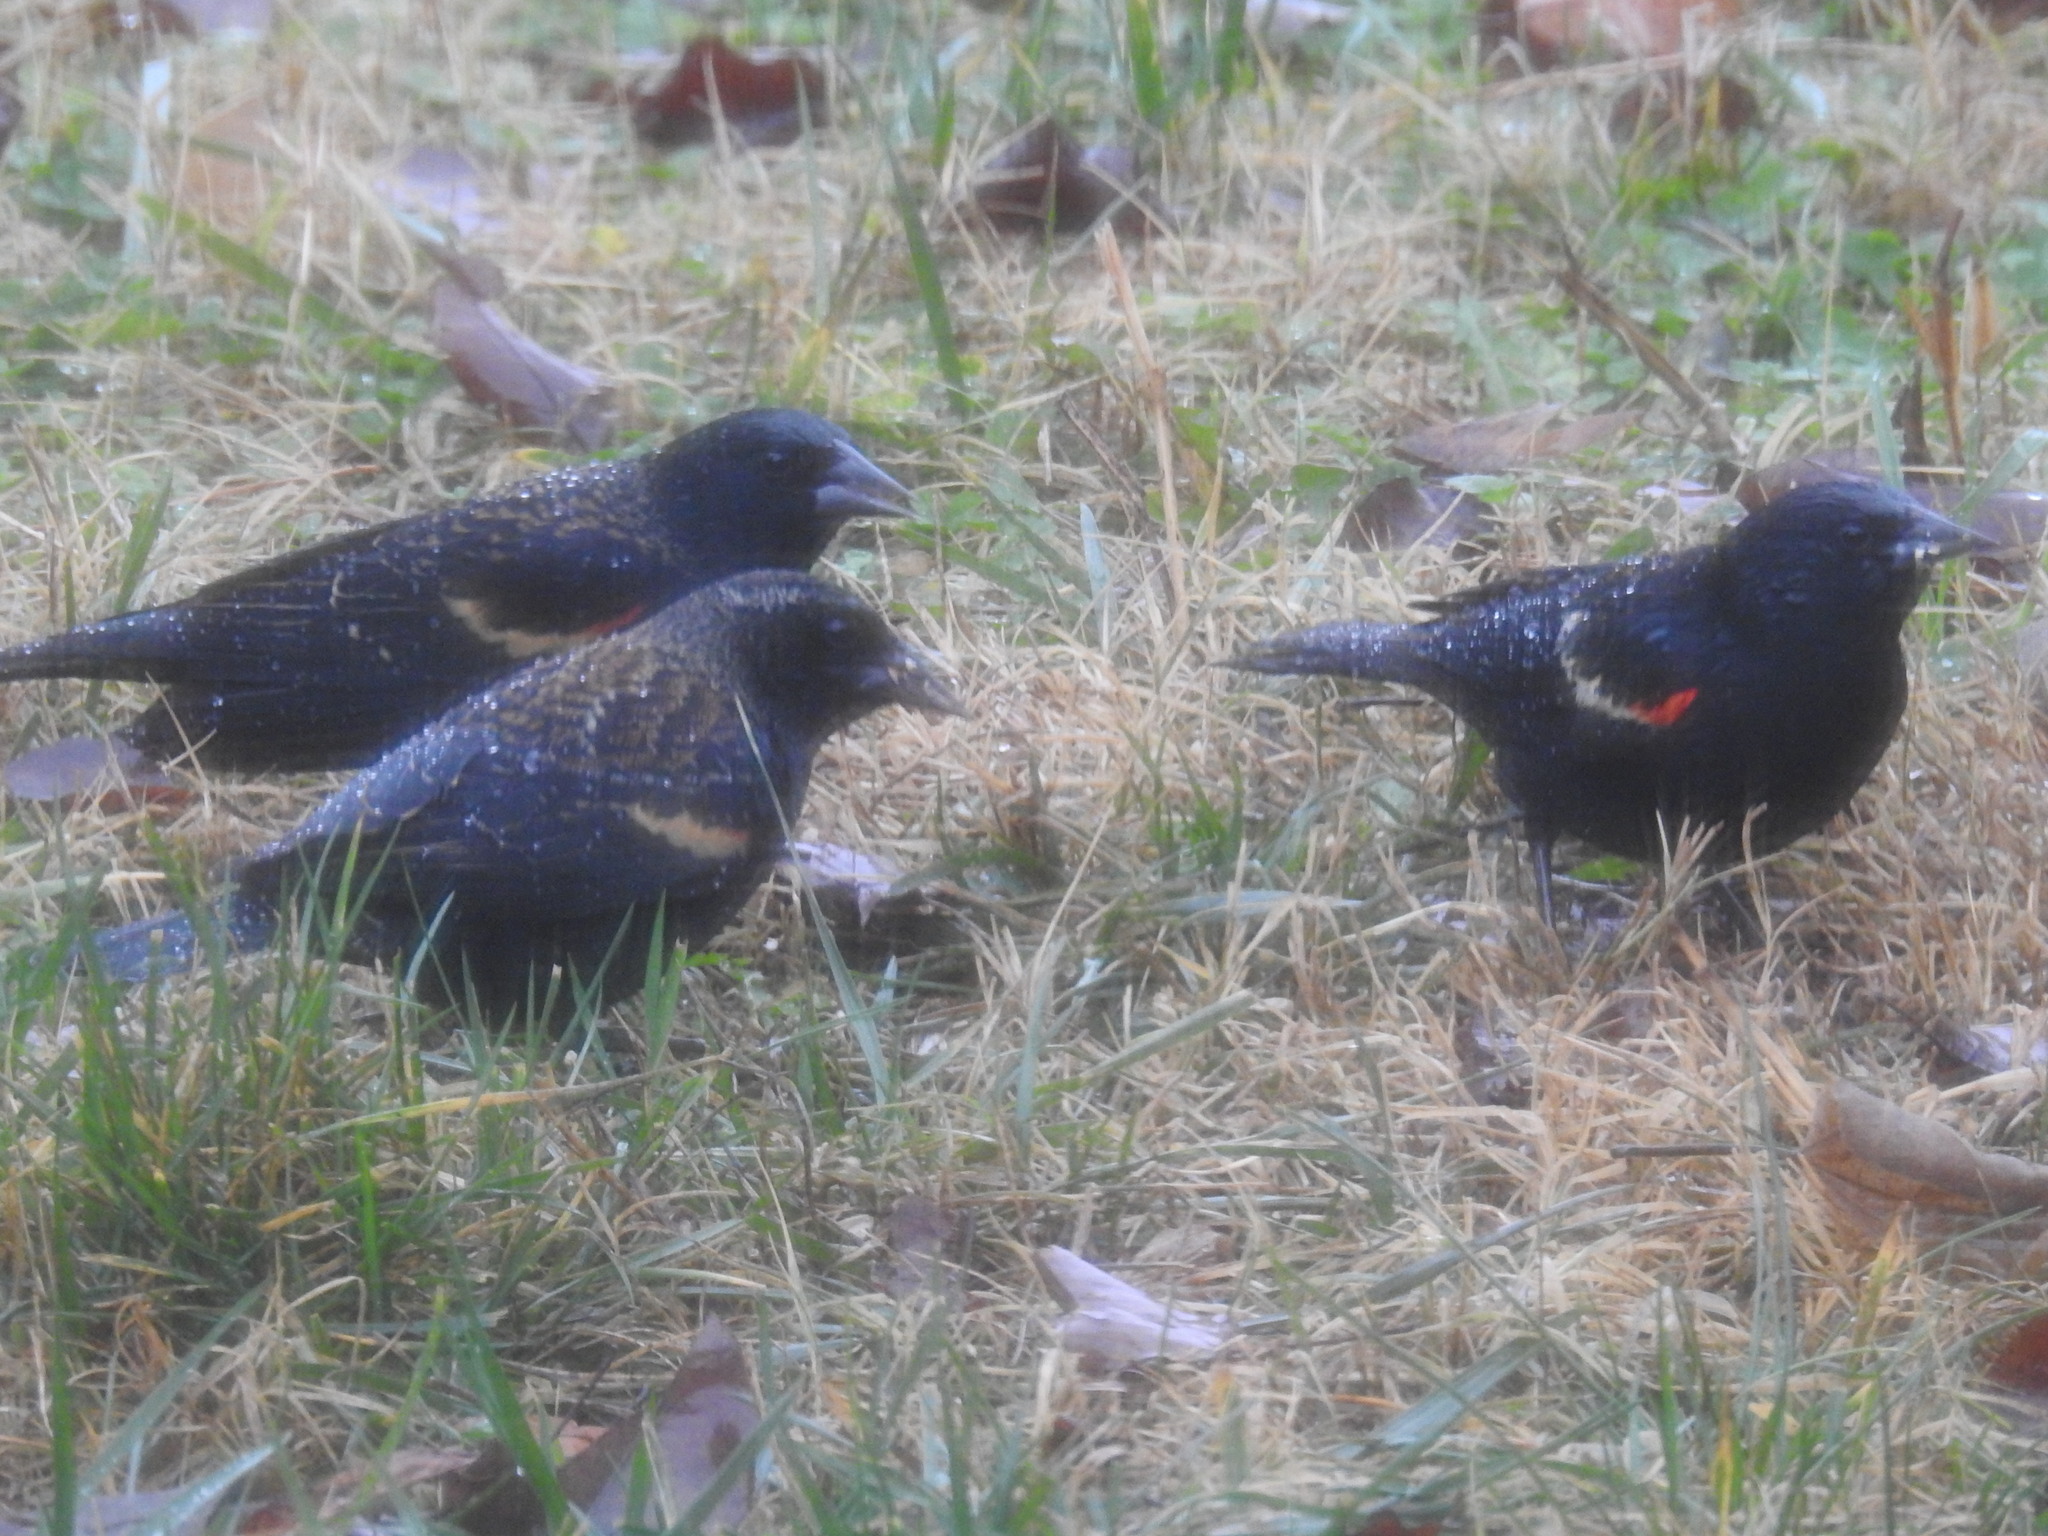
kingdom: Animalia
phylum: Chordata
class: Aves
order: Passeriformes
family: Icteridae
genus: Agelaius
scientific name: Agelaius phoeniceus
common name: Red-winged blackbird
